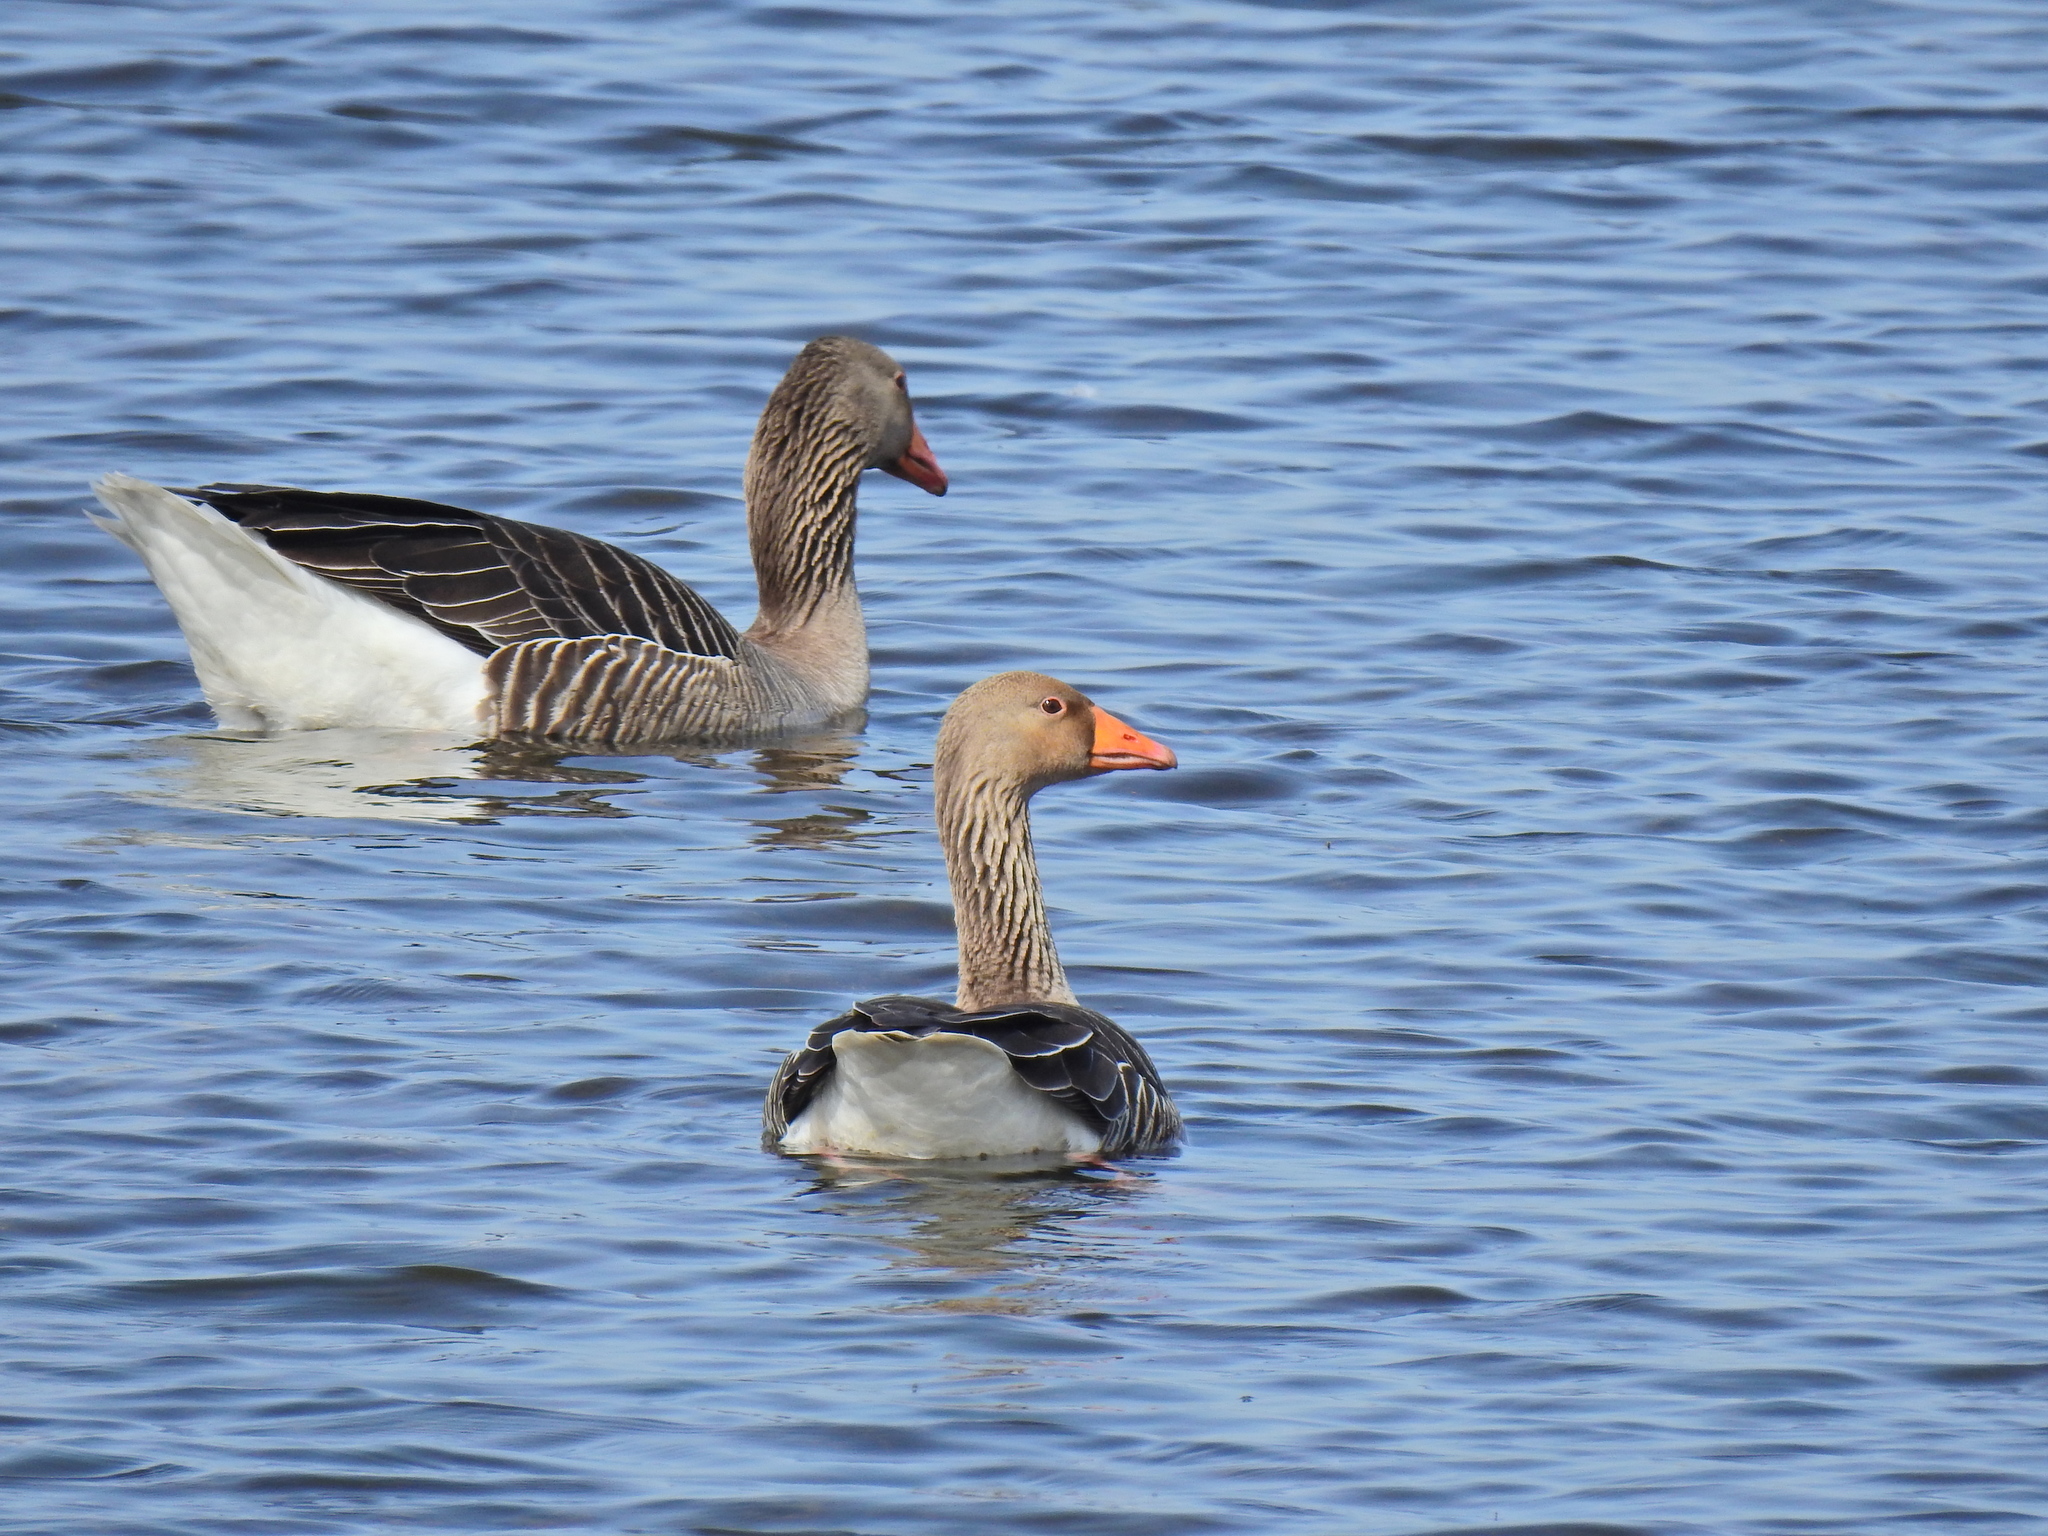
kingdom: Animalia
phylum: Chordata
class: Aves
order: Anseriformes
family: Anatidae
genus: Anser
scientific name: Anser anser
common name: Greylag goose
